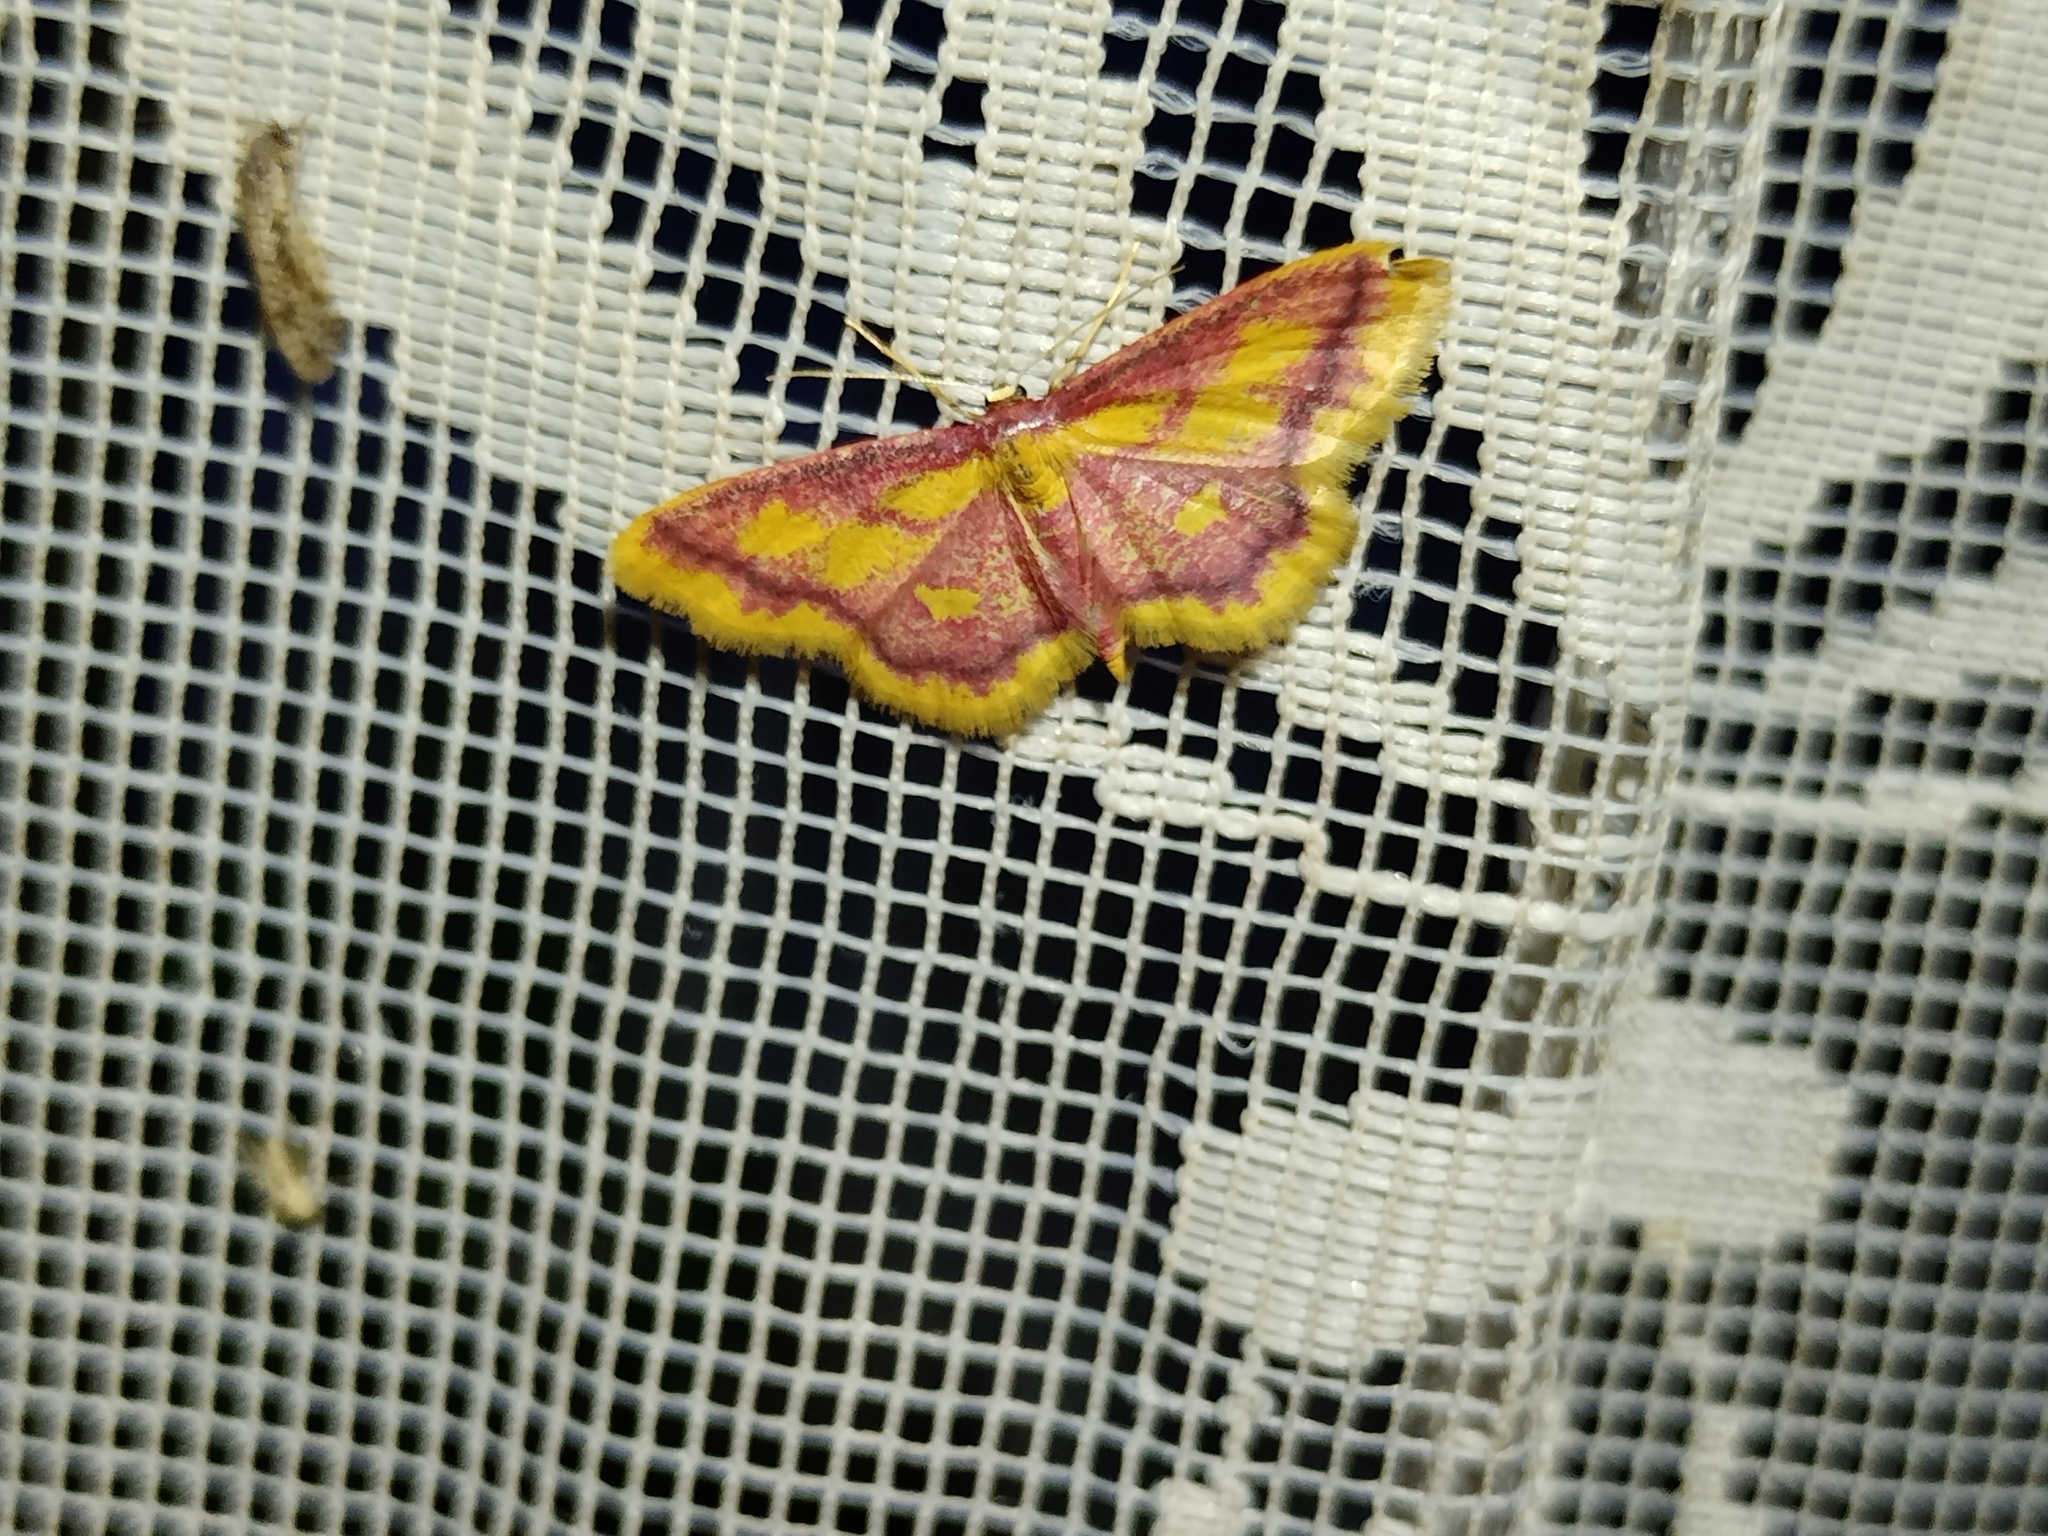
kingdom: Animalia
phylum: Arthropoda
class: Insecta
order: Lepidoptera
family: Geometridae
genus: Idaea
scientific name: Idaea muricata
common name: Purple-bordered gold
